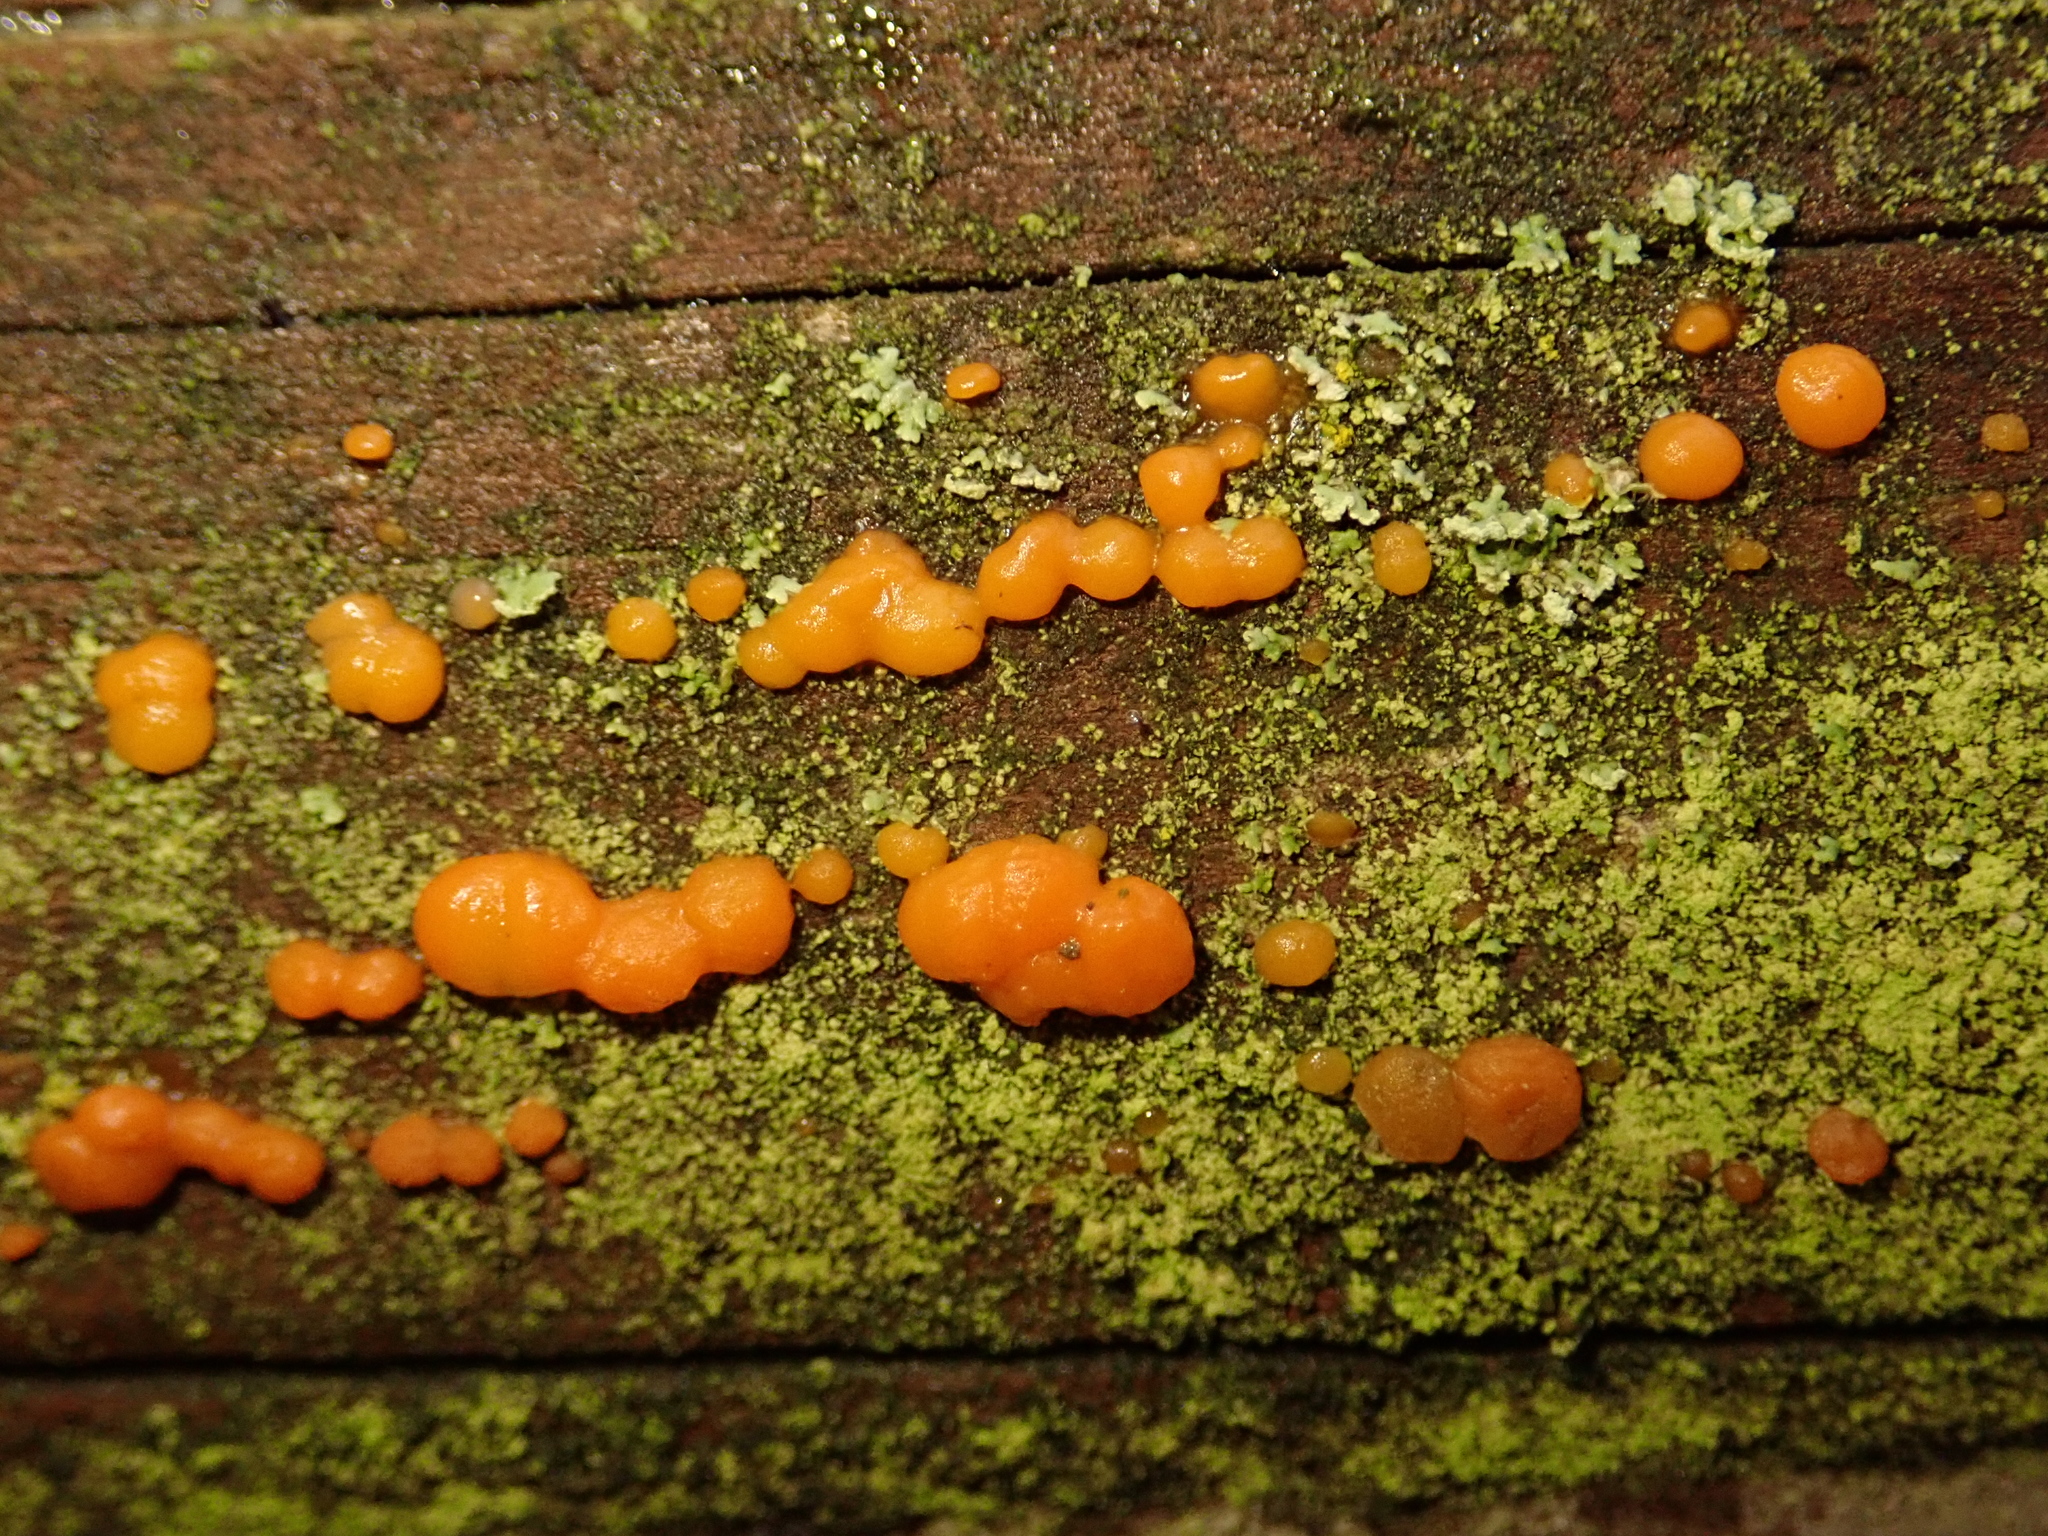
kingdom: Fungi
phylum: Basidiomycota
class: Dacrymycetes
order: Dacrymycetales
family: Dacrymycetaceae
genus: Dacrymyces
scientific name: Dacrymyces stillatus
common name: Common jelly spot
